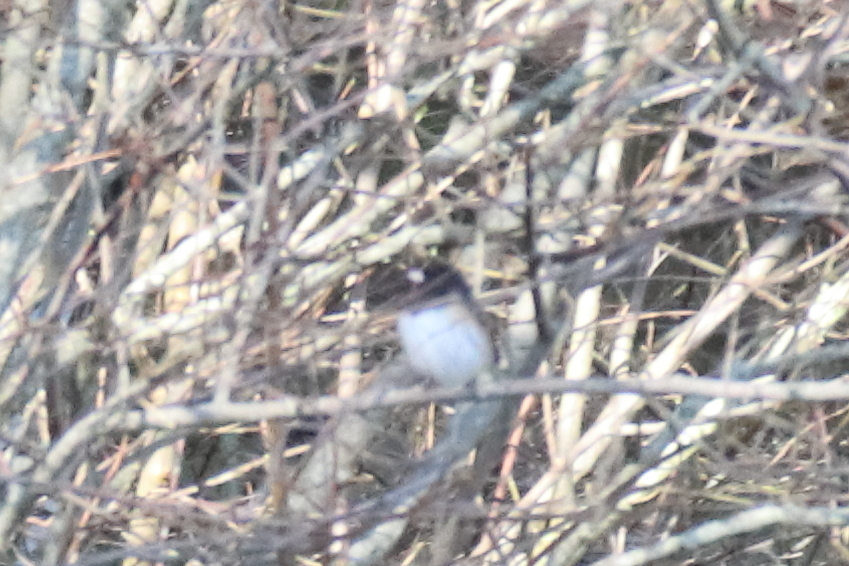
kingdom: Animalia
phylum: Chordata
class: Aves
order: Passeriformes
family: Passerellidae
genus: Junco
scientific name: Junco hyemalis
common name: Dark-eyed junco
